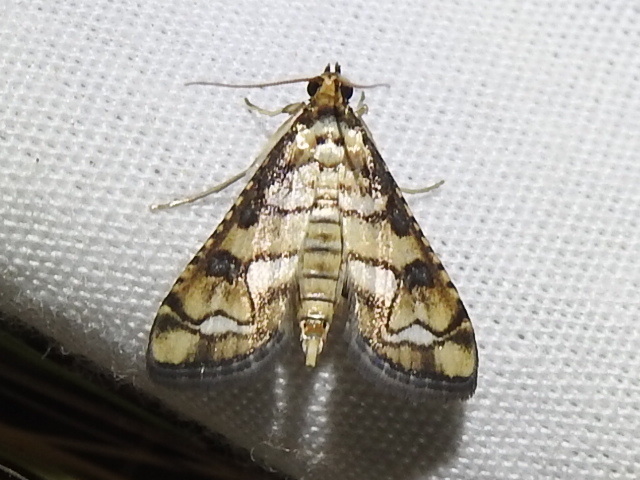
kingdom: Animalia
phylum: Arthropoda
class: Insecta
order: Lepidoptera
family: Crambidae
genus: Hileithia
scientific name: Hileithia magualis
